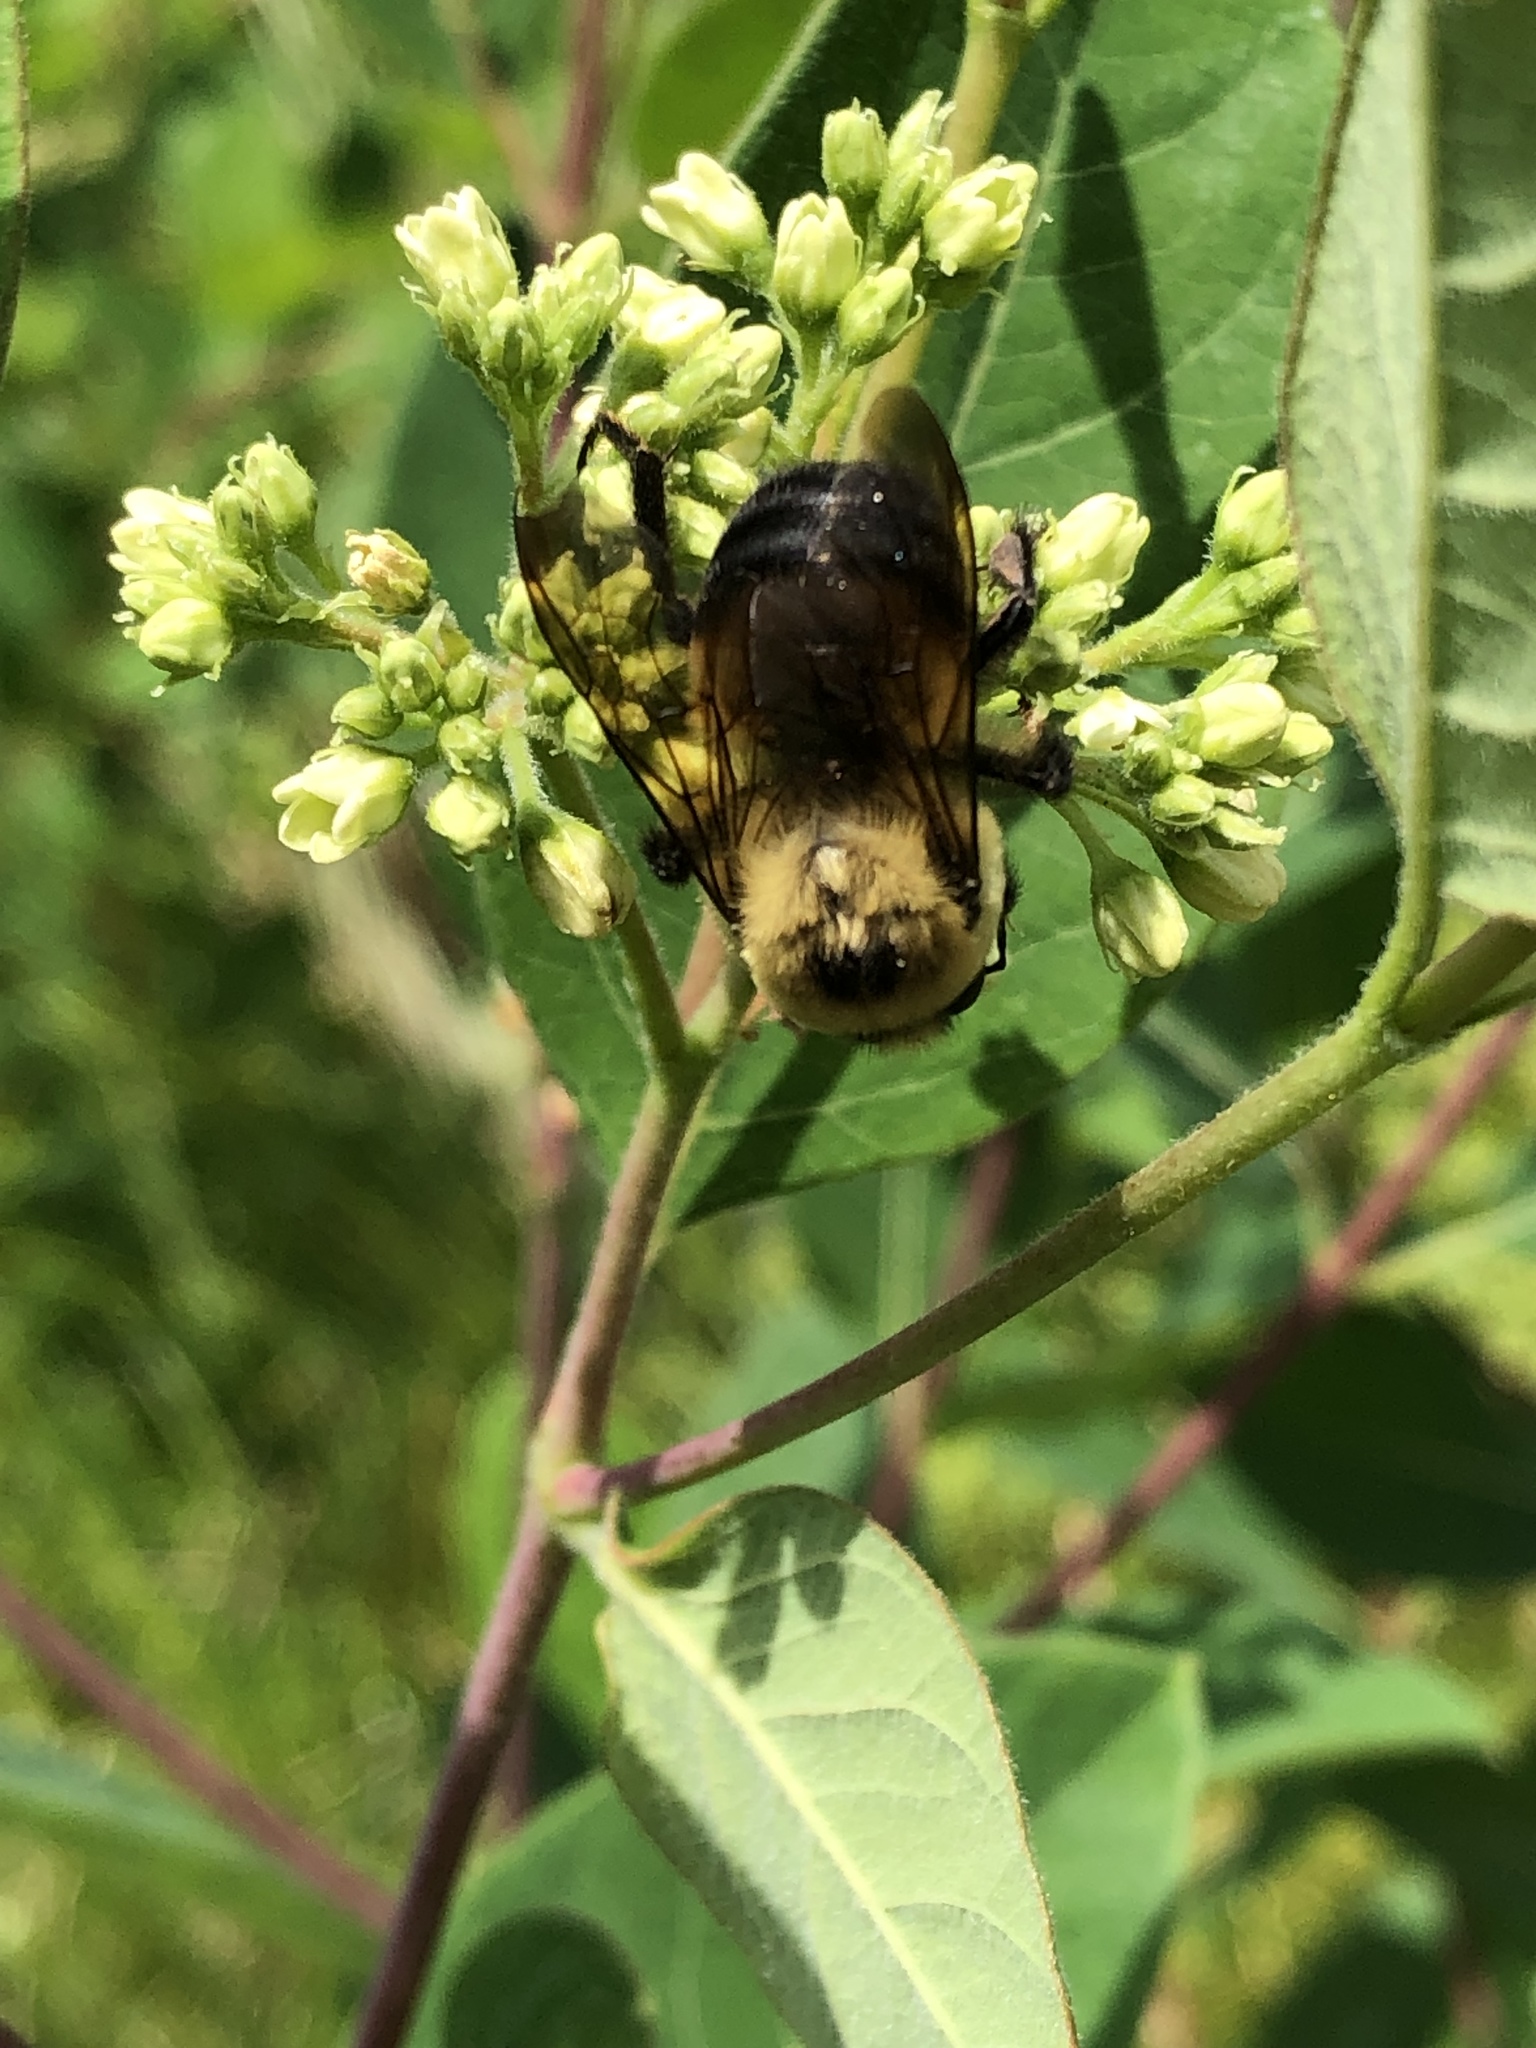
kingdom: Animalia
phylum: Arthropoda
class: Insecta
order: Hymenoptera
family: Apidae
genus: Bombus
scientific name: Bombus griseocollis
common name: Brown-belted bumble bee
